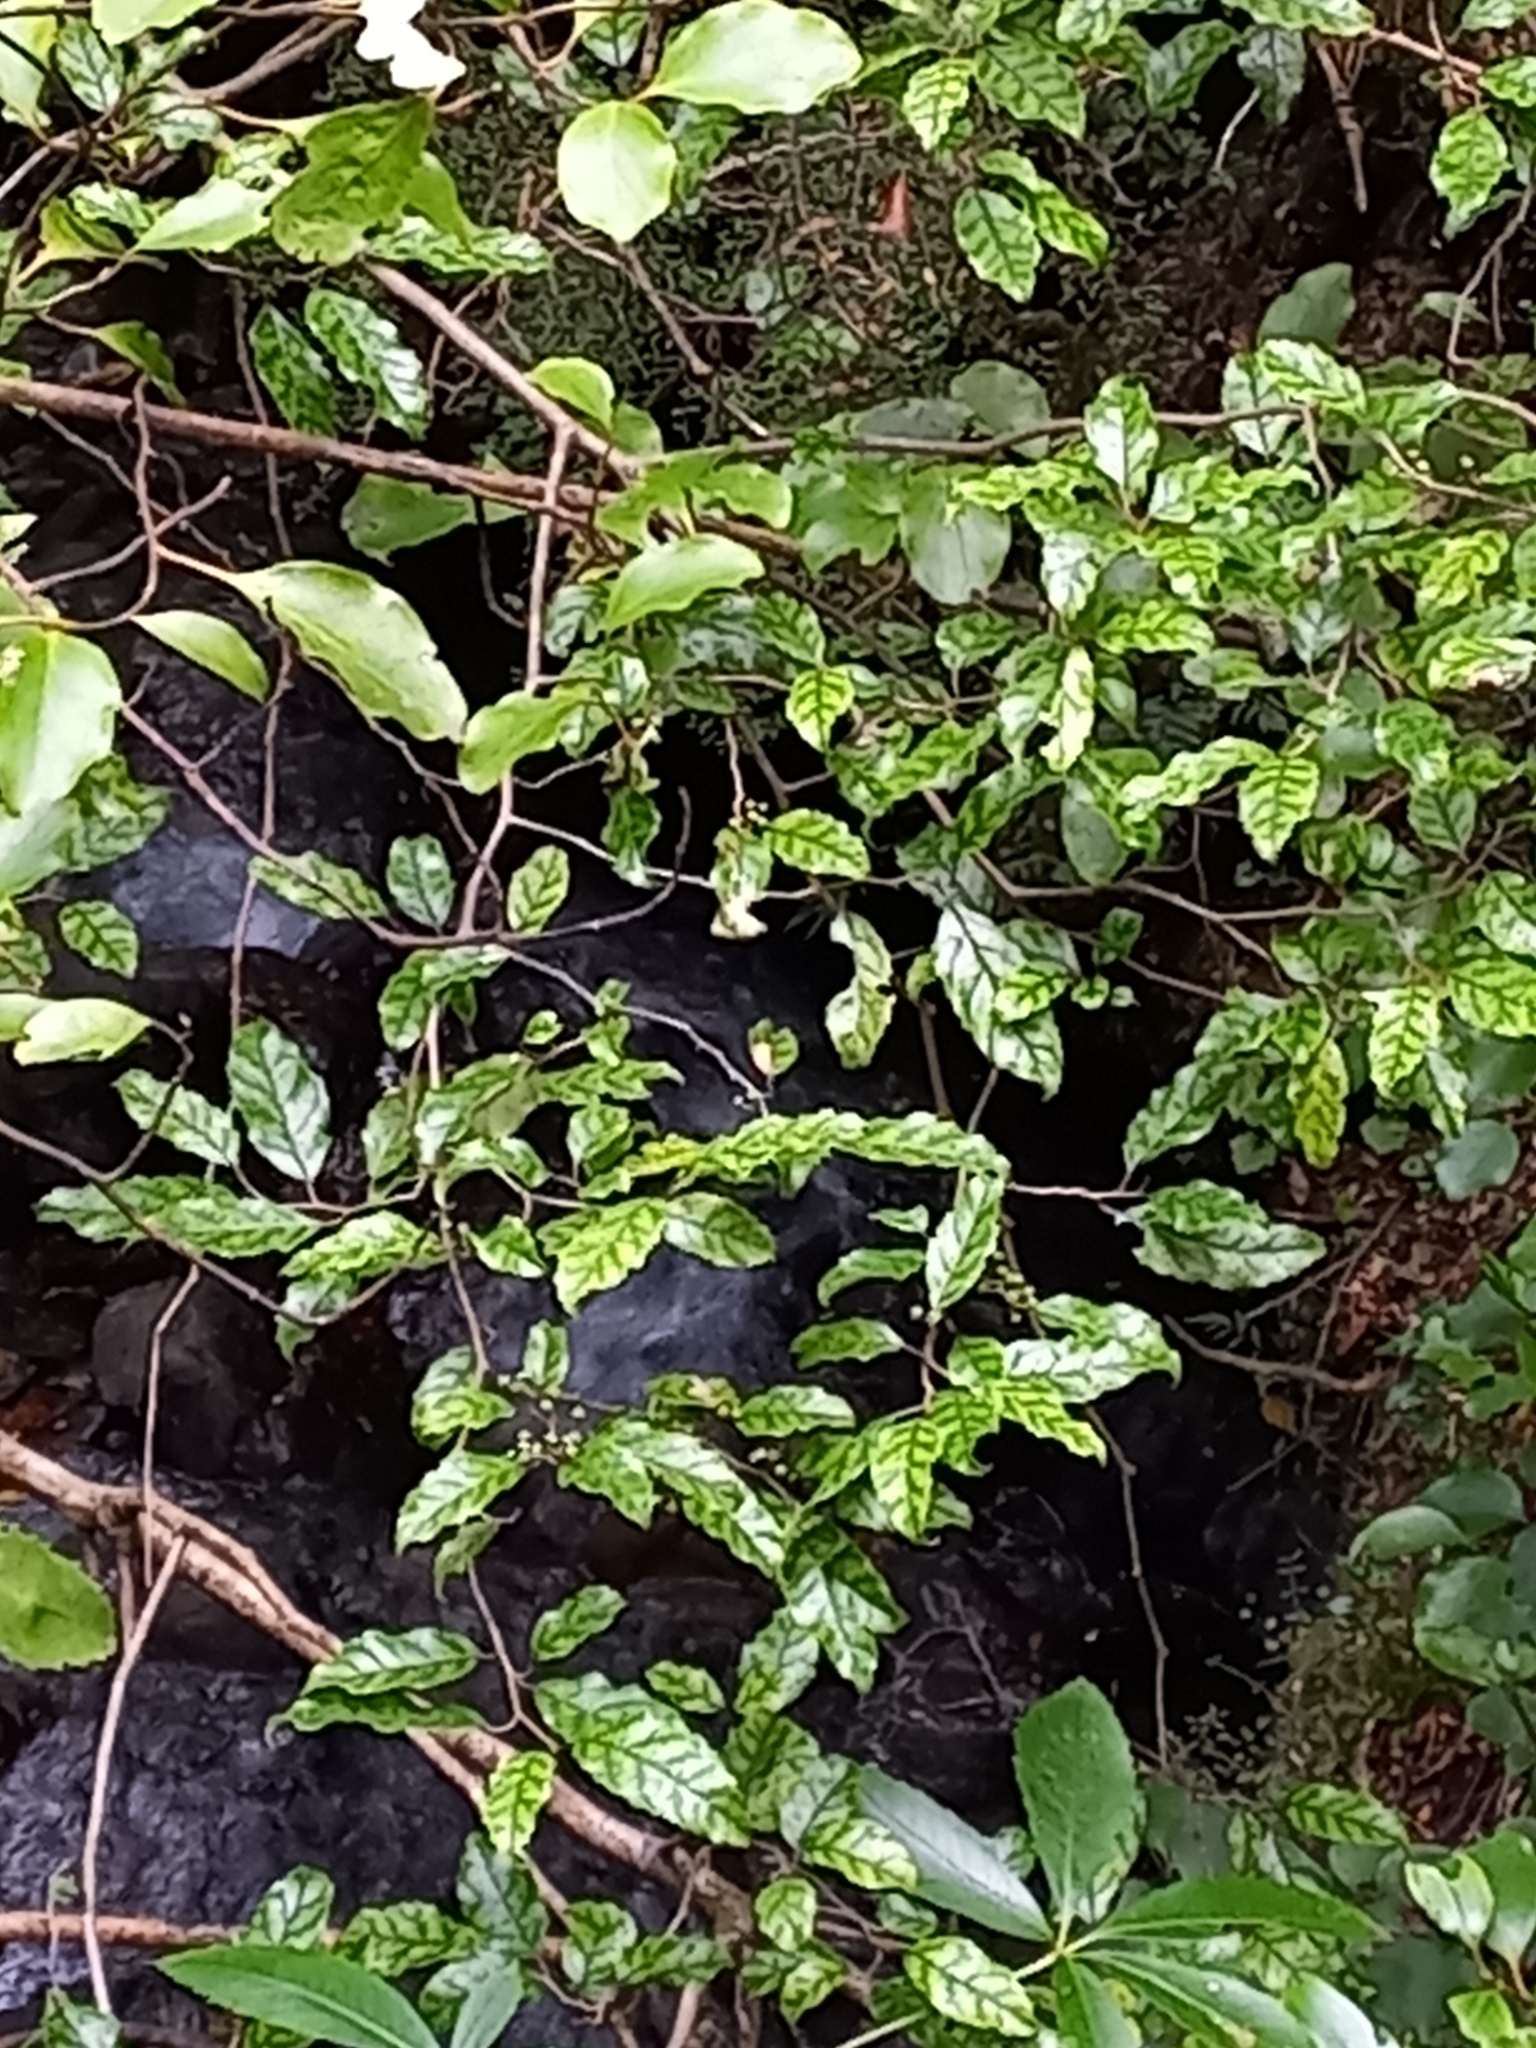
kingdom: Plantae
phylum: Tracheophyta
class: Magnoliopsida
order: Asterales
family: Rousseaceae
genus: Carpodetus
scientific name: Carpodetus serratus
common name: White mapau
